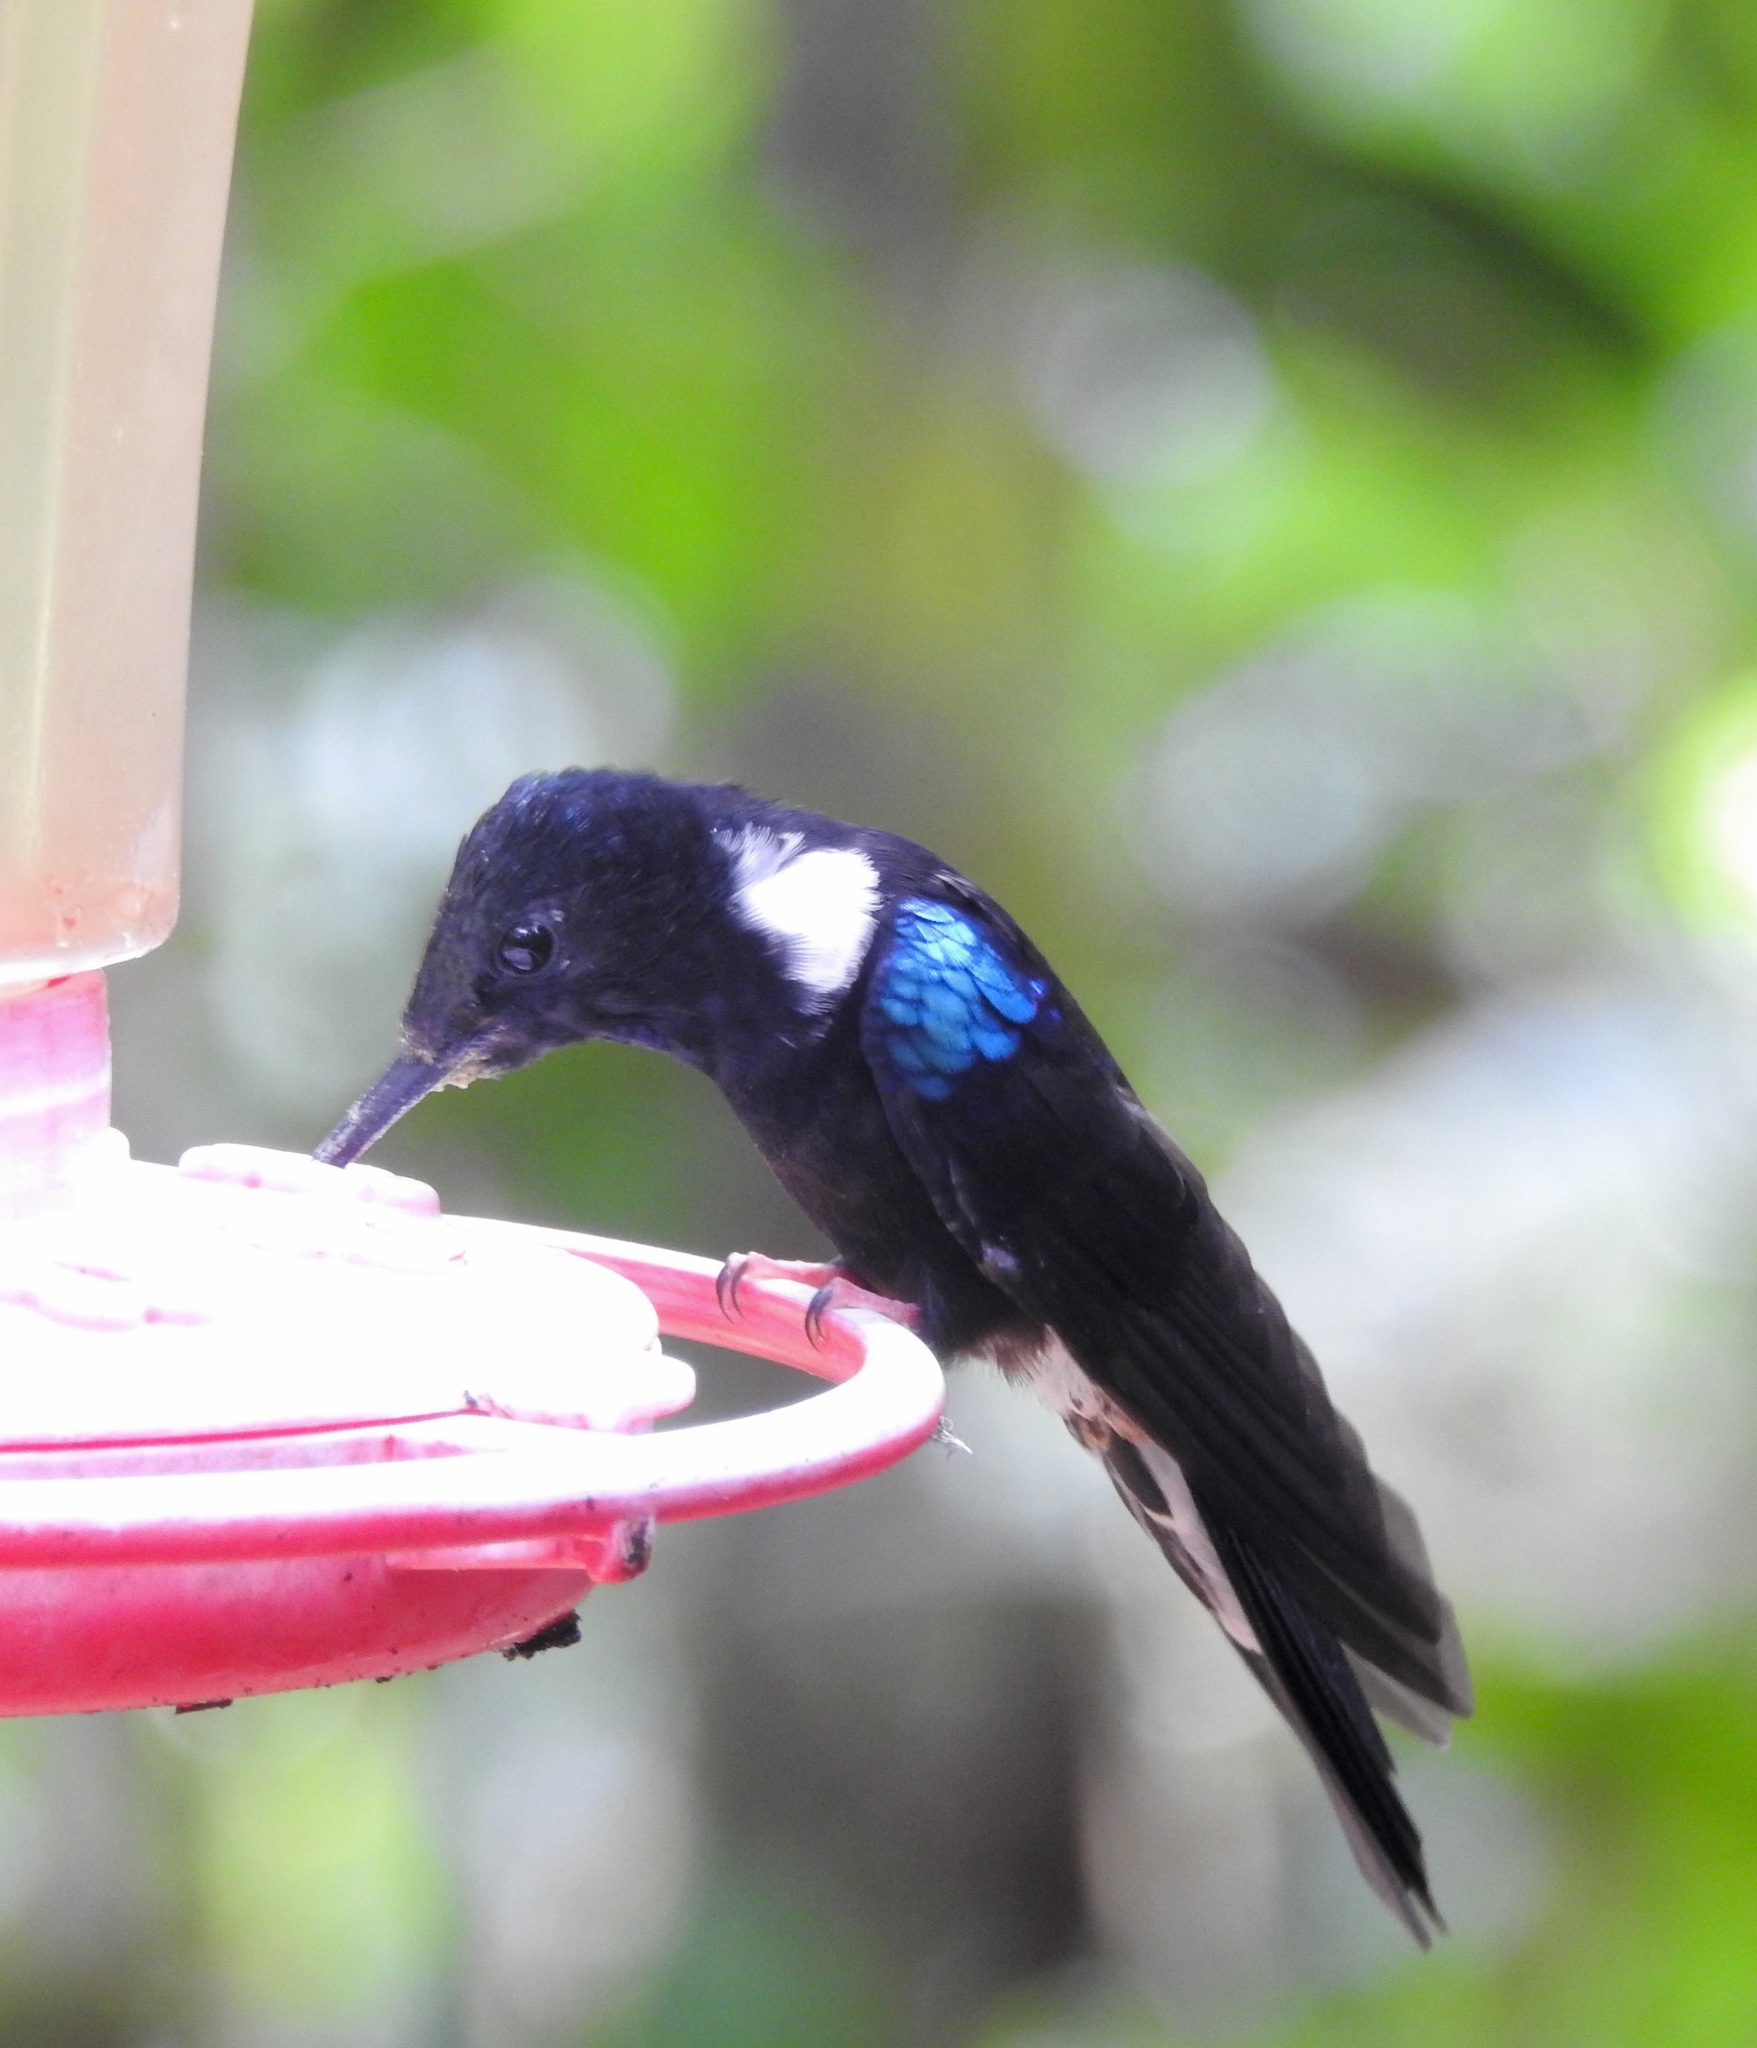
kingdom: Animalia
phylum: Chordata
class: Aves
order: Apodiformes
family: Trochilidae
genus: Coeligena
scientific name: Coeligena prunellei
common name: Black inca
